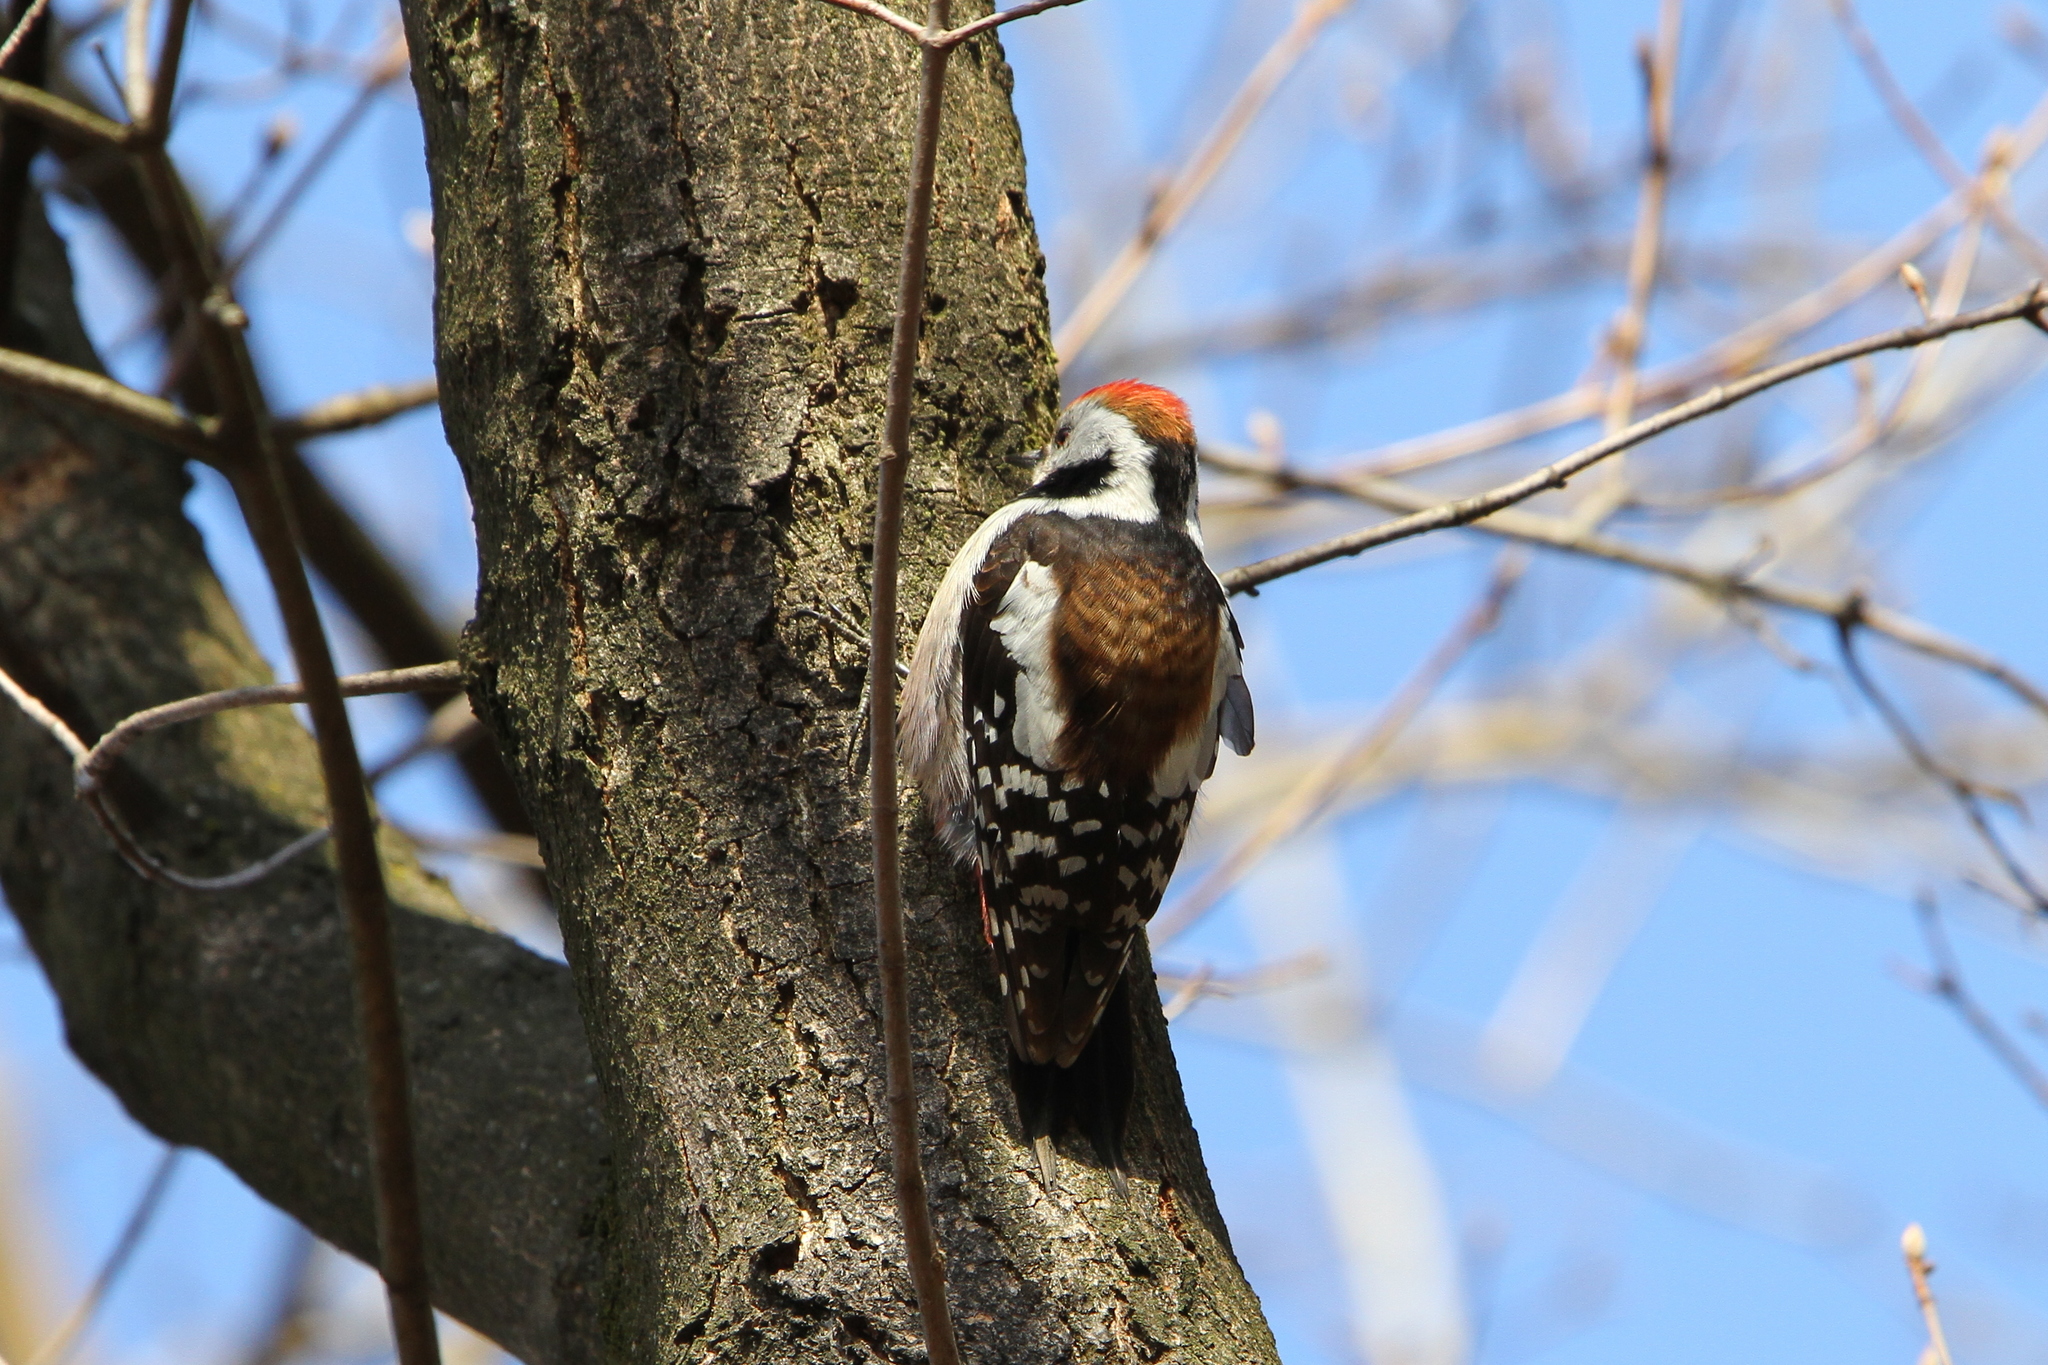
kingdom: Animalia
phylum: Chordata
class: Aves
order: Piciformes
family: Picidae
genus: Dendrocoptes
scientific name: Dendrocoptes medius
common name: Middle spotted woodpecker
